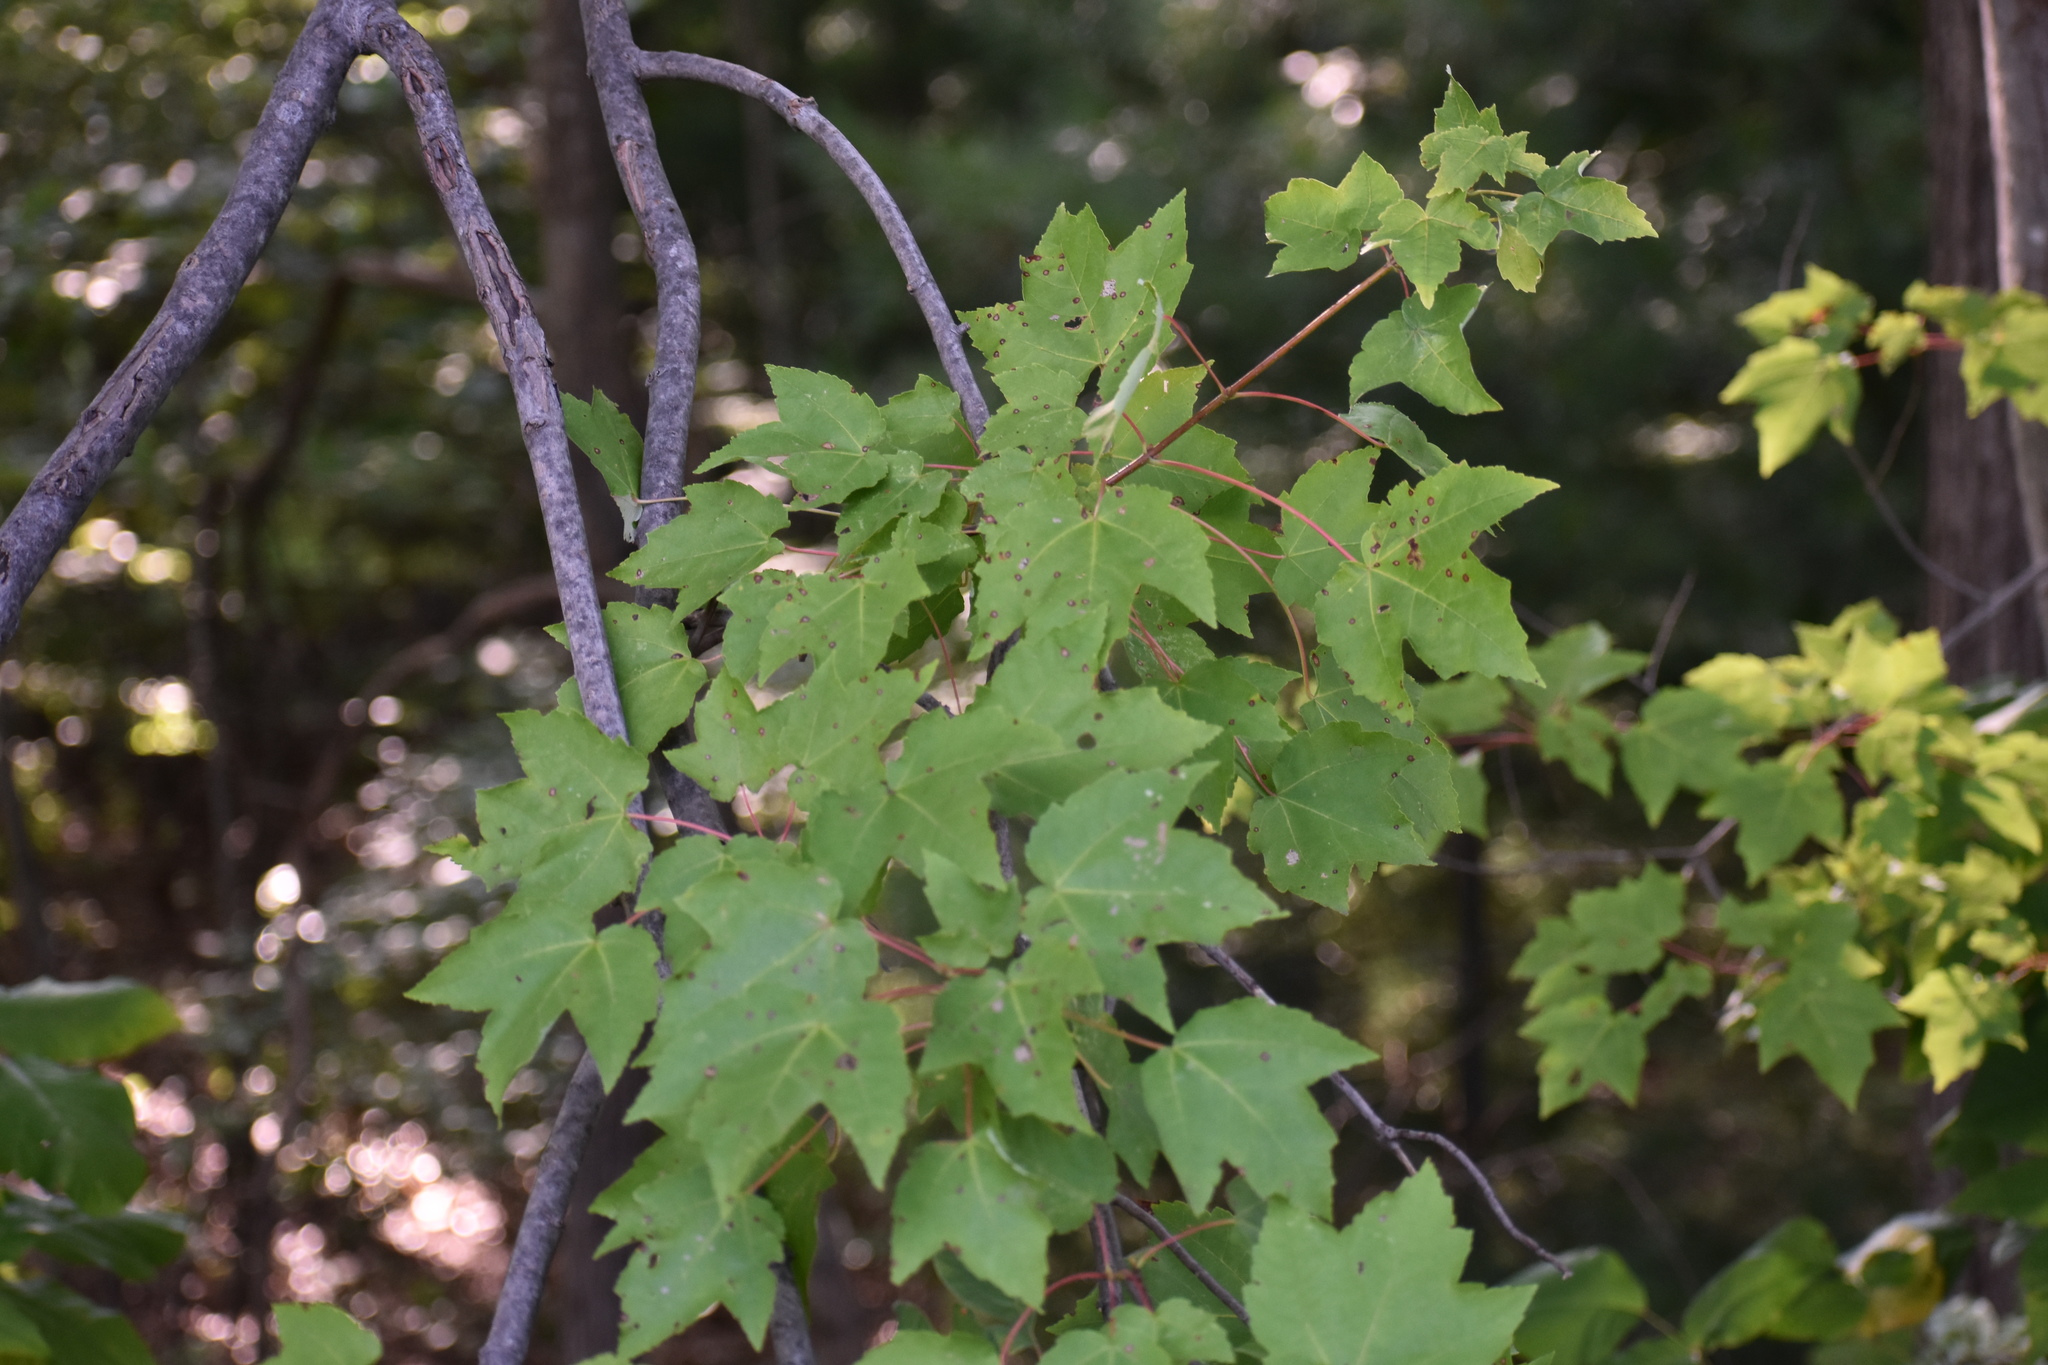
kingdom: Plantae
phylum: Tracheophyta
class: Magnoliopsida
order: Sapindales
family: Sapindaceae
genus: Acer
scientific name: Acer rubrum
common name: Red maple
